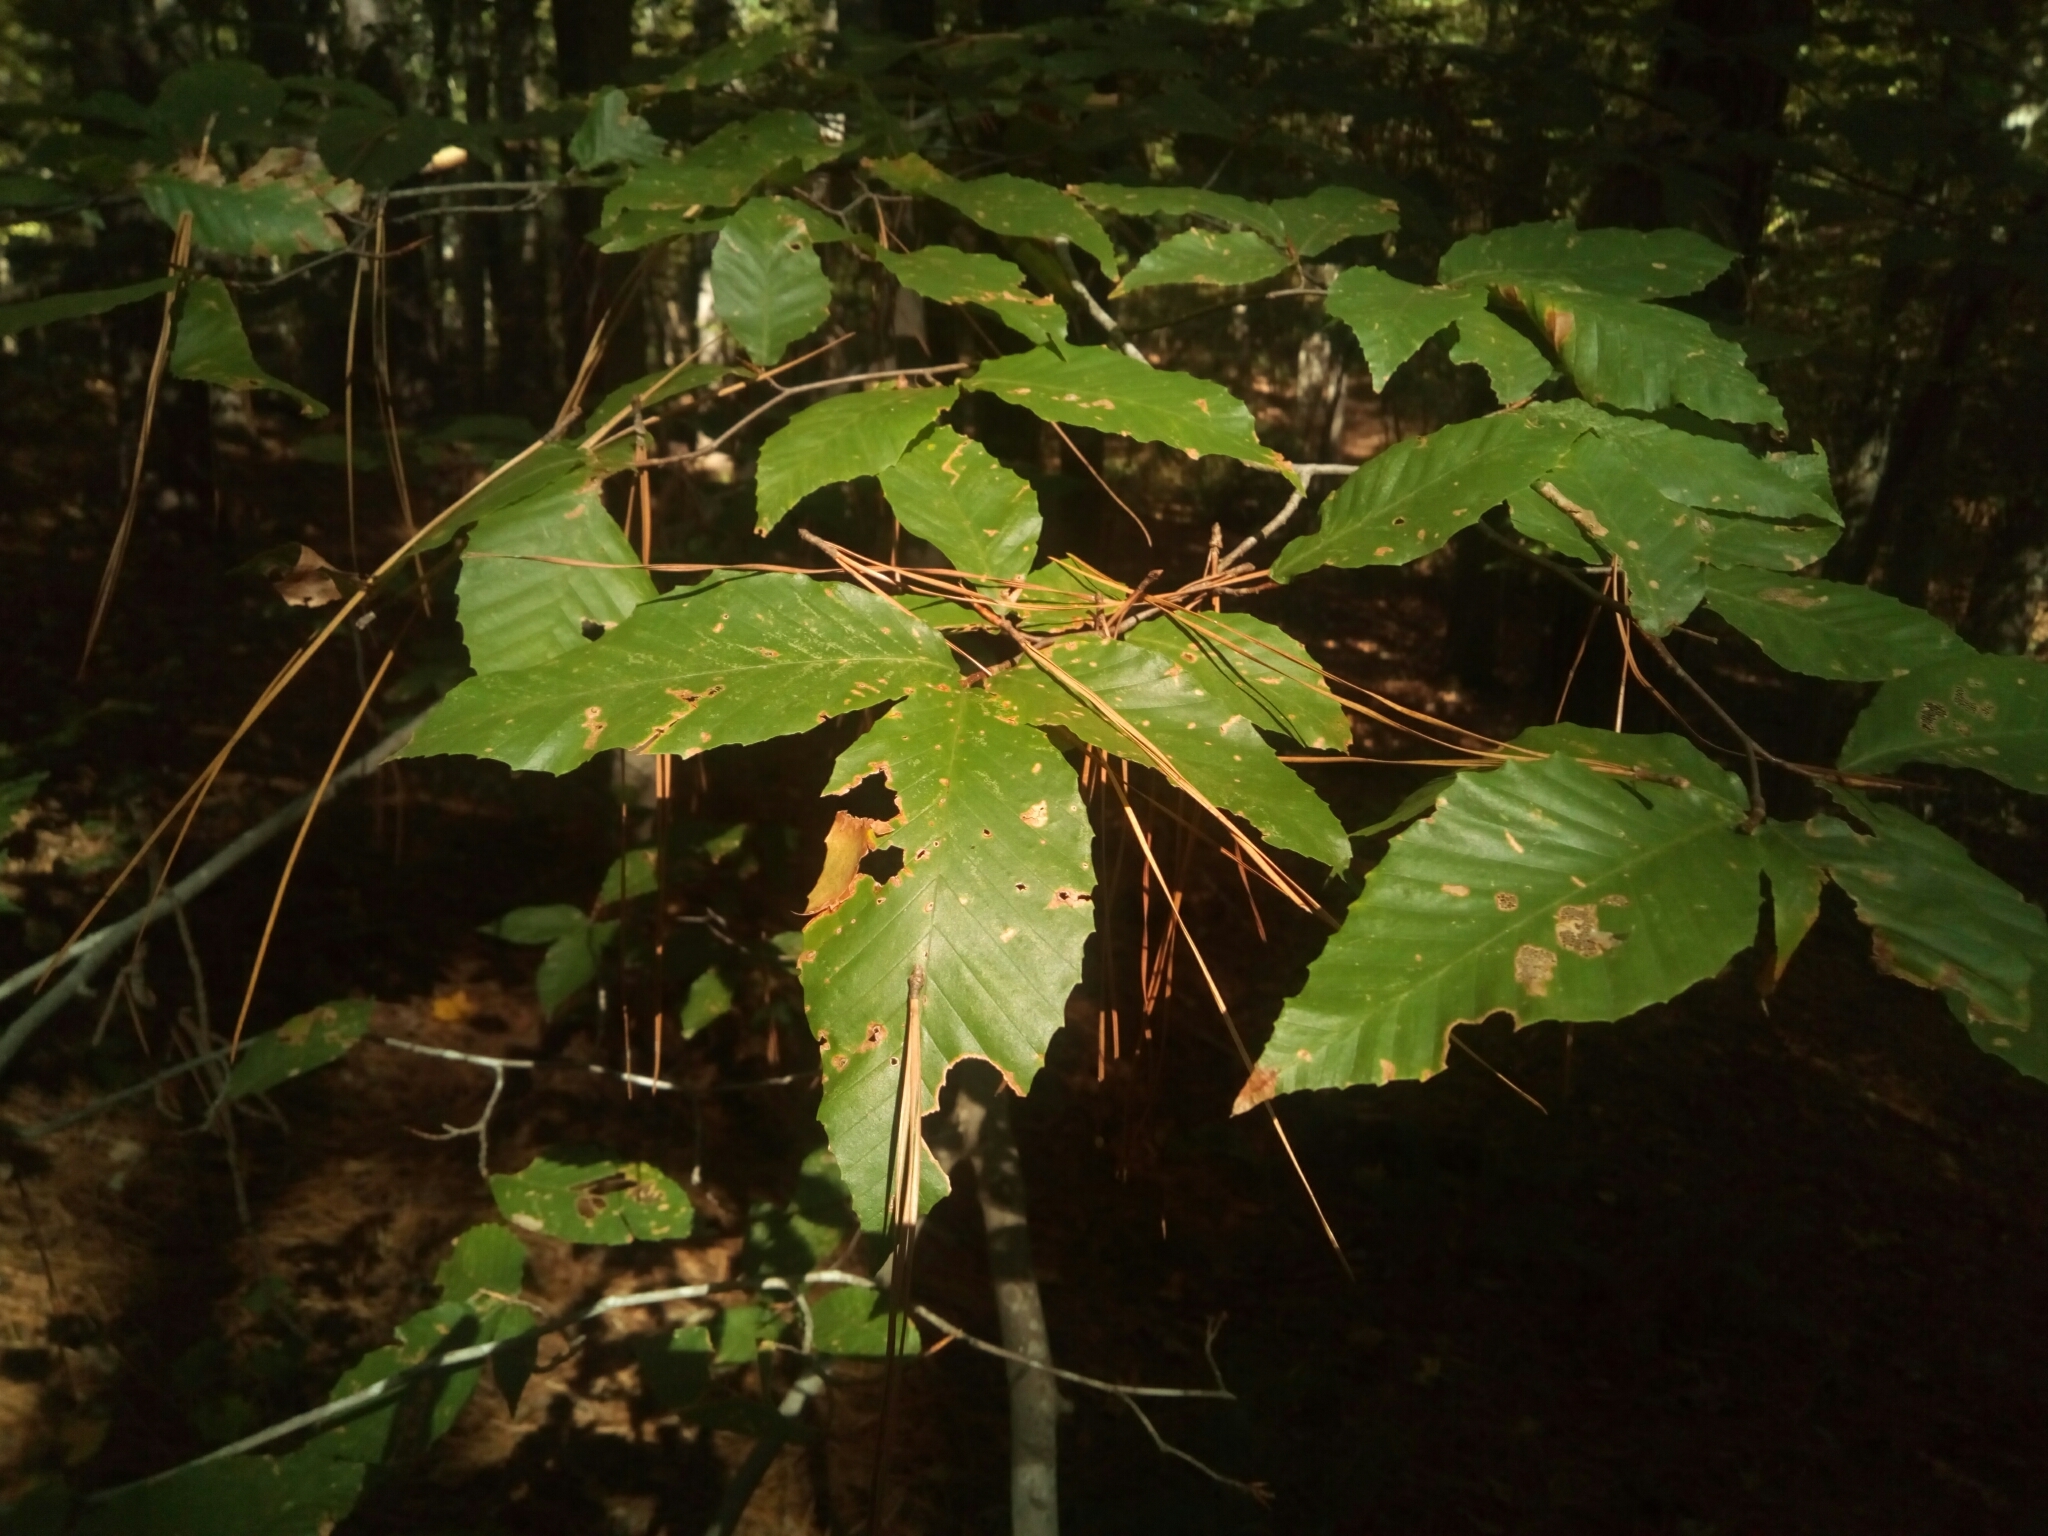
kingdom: Plantae
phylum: Tracheophyta
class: Magnoliopsida
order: Fagales
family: Fagaceae
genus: Fagus
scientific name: Fagus grandifolia
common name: American beech
